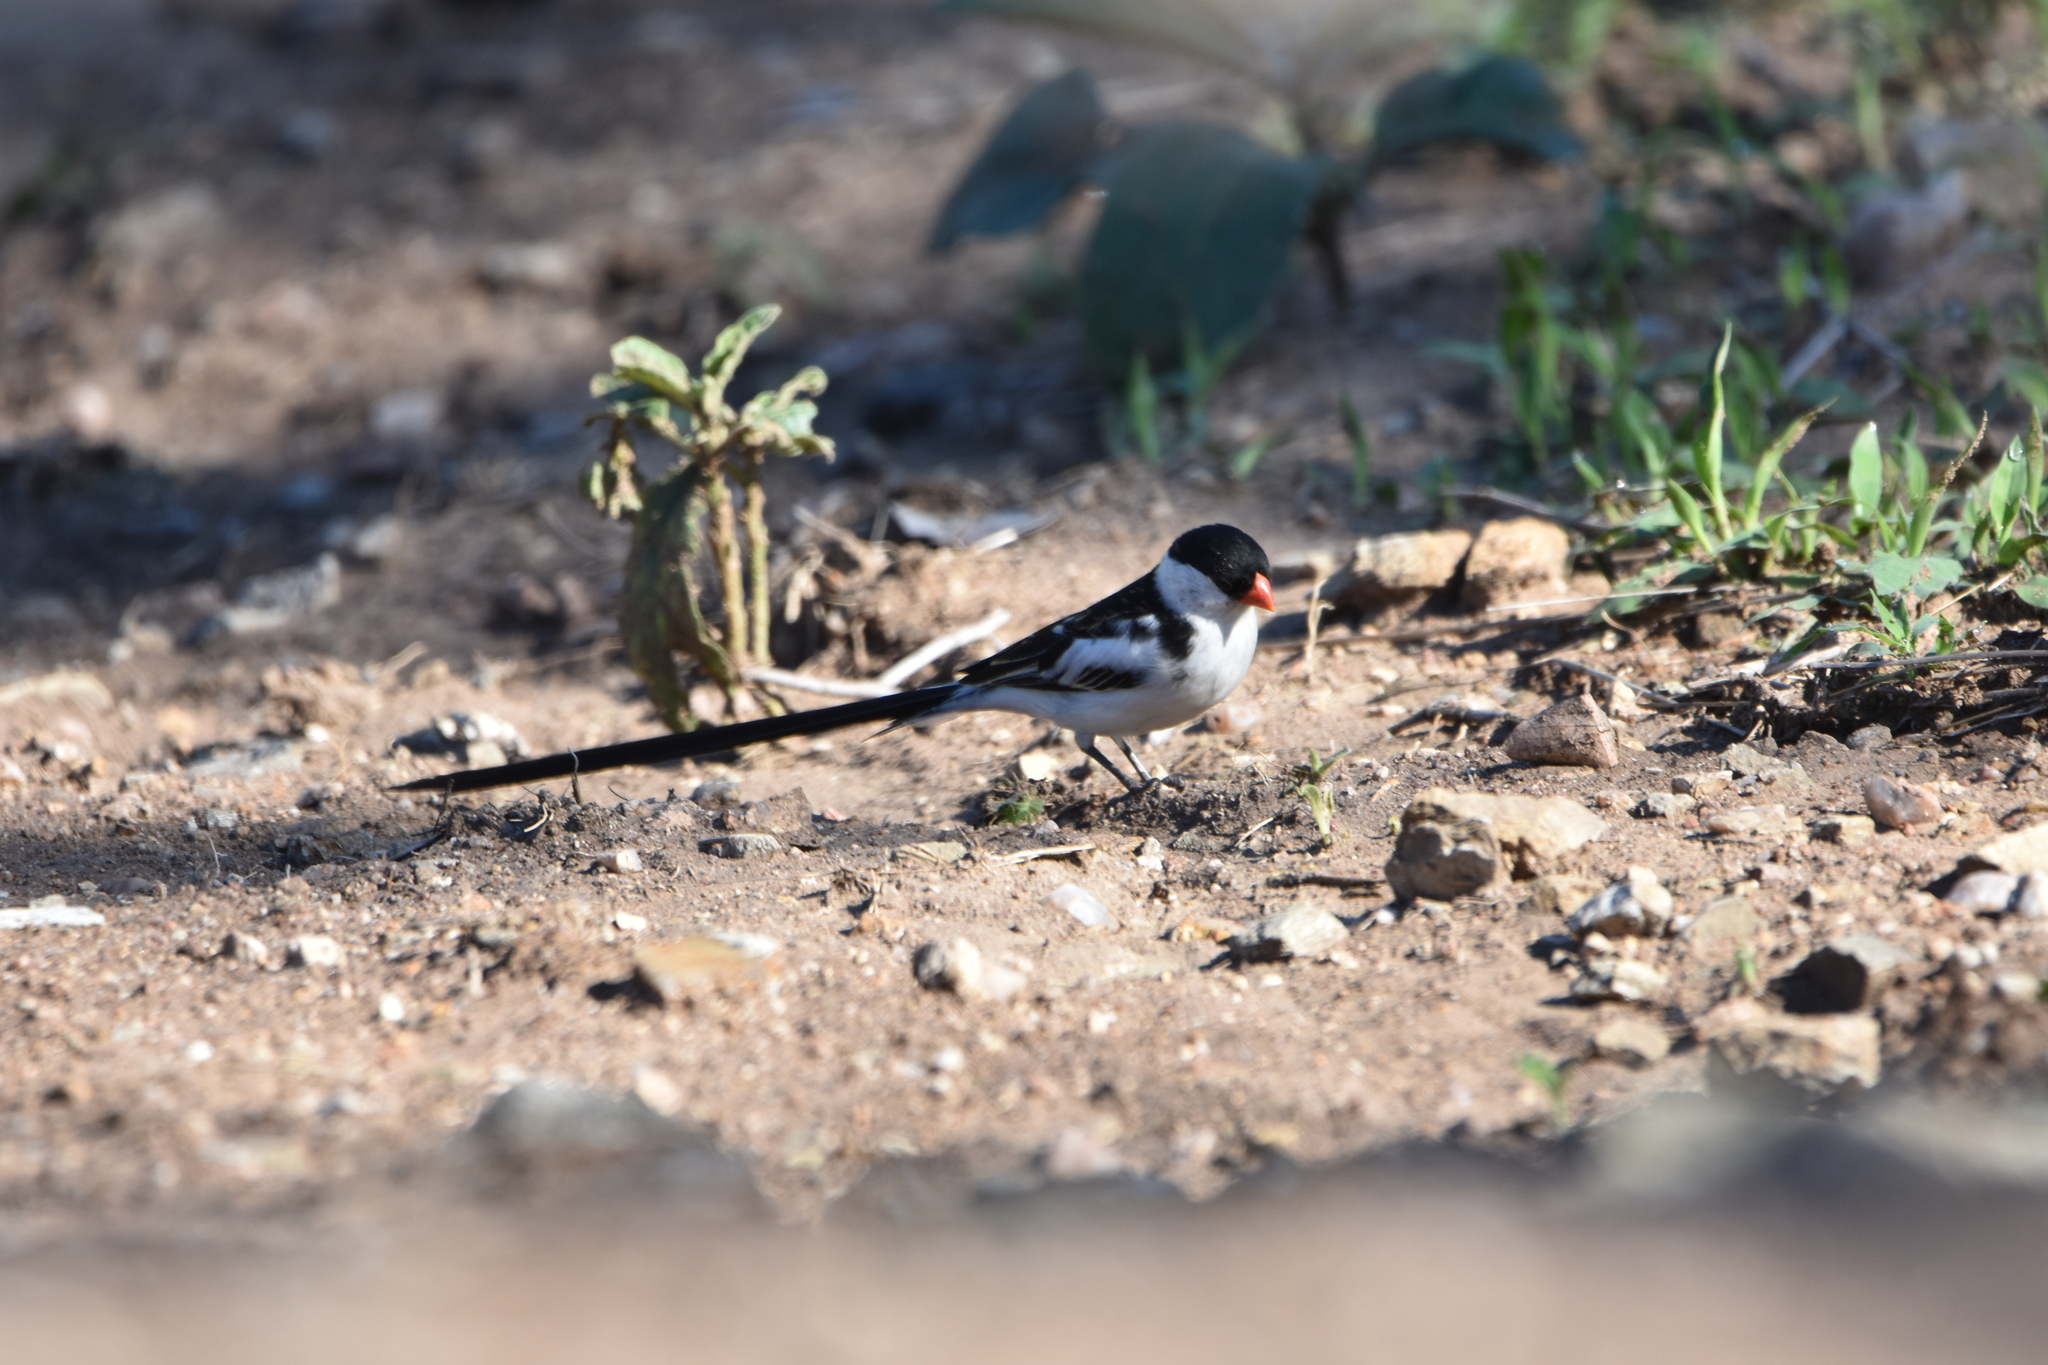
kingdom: Animalia
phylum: Chordata
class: Aves
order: Passeriformes
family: Viduidae
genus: Vidua
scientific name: Vidua macroura
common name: Pin-tailed whydah
